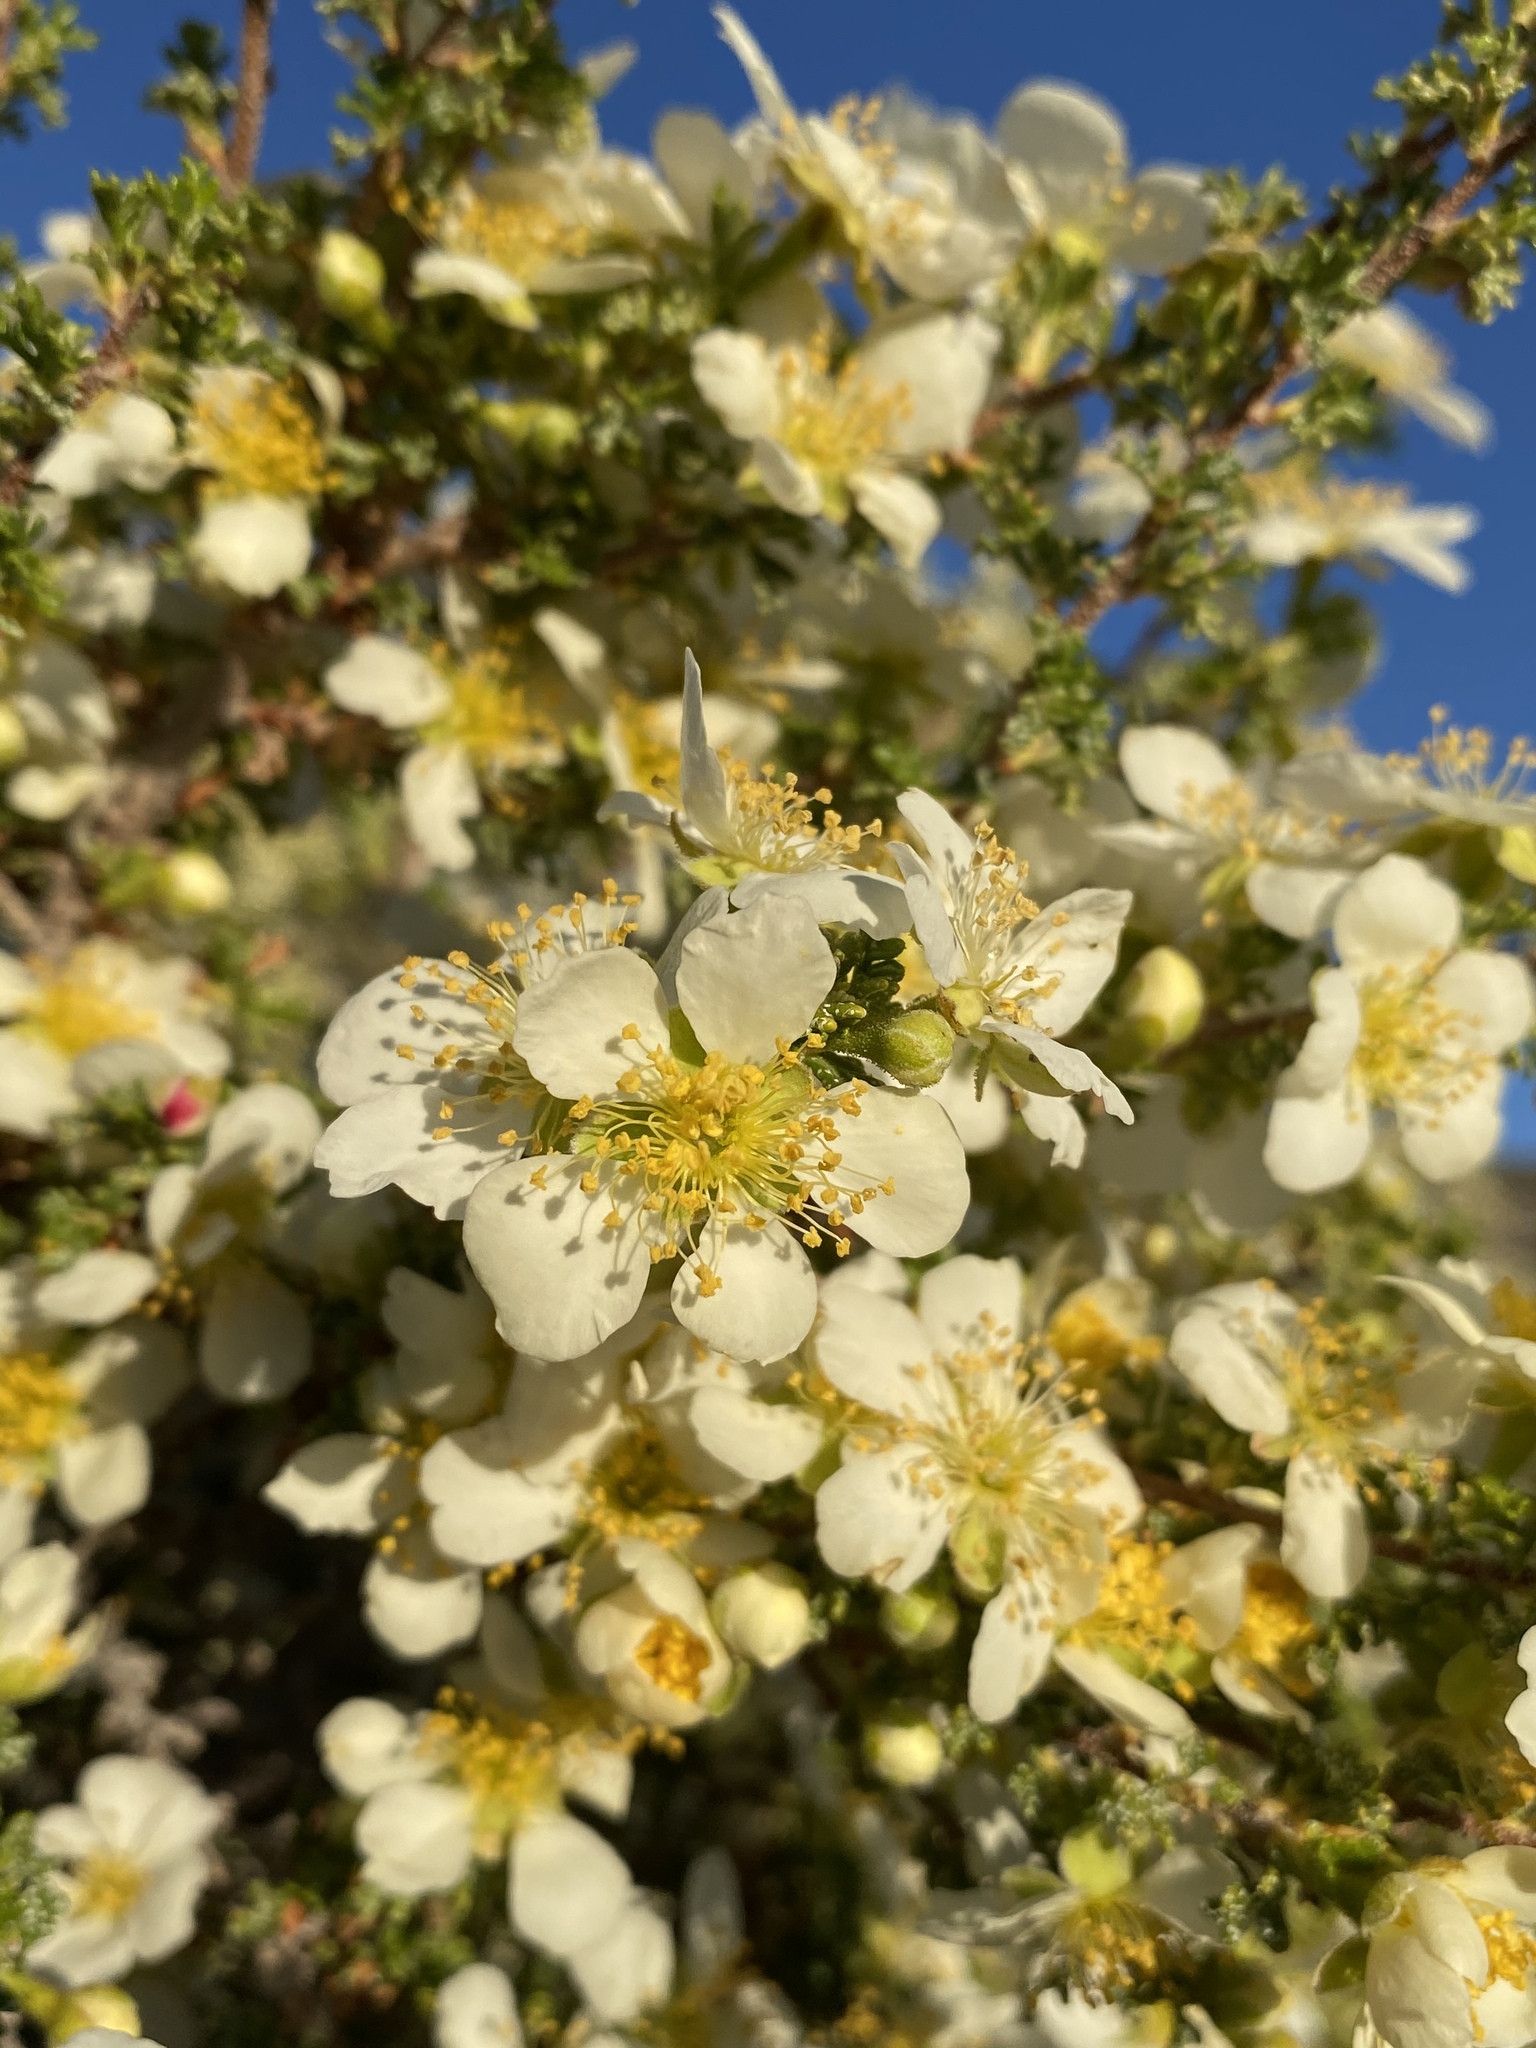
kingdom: Plantae
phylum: Tracheophyta
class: Magnoliopsida
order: Rosales
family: Rosaceae
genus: Purshia
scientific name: Purshia stansburiana
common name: Stansbury's cliffrose
